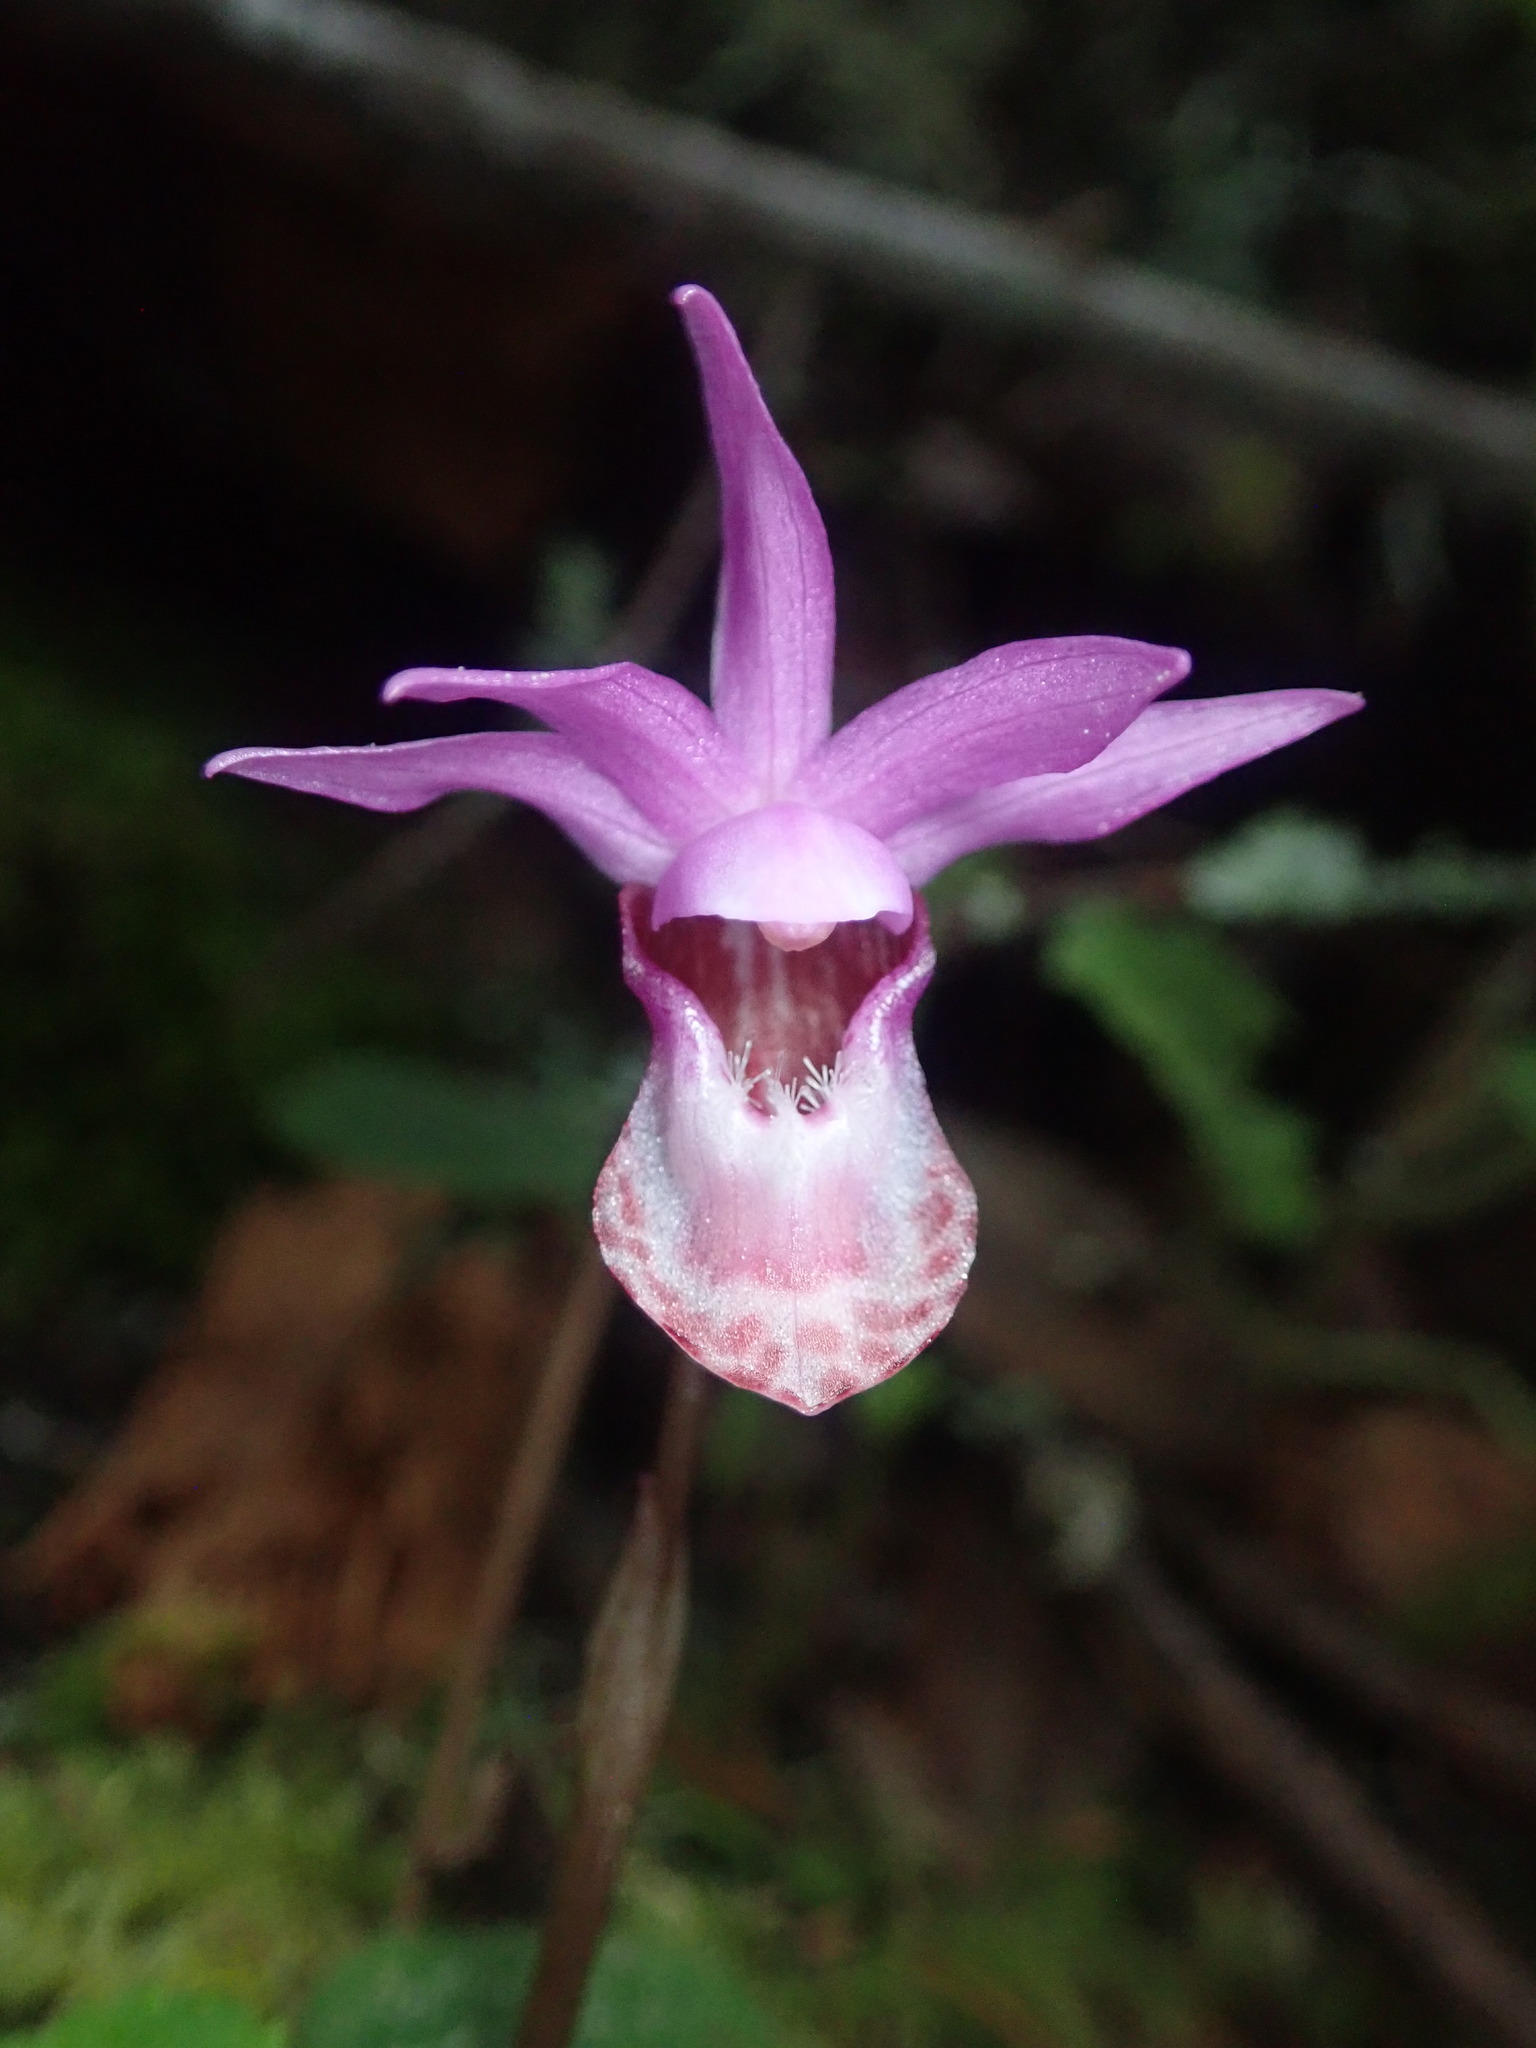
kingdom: Plantae
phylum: Tracheophyta
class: Liliopsida
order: Asparagales
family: Orchidaceae
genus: Calypso
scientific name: Calypso bulbosa
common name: Calypso
